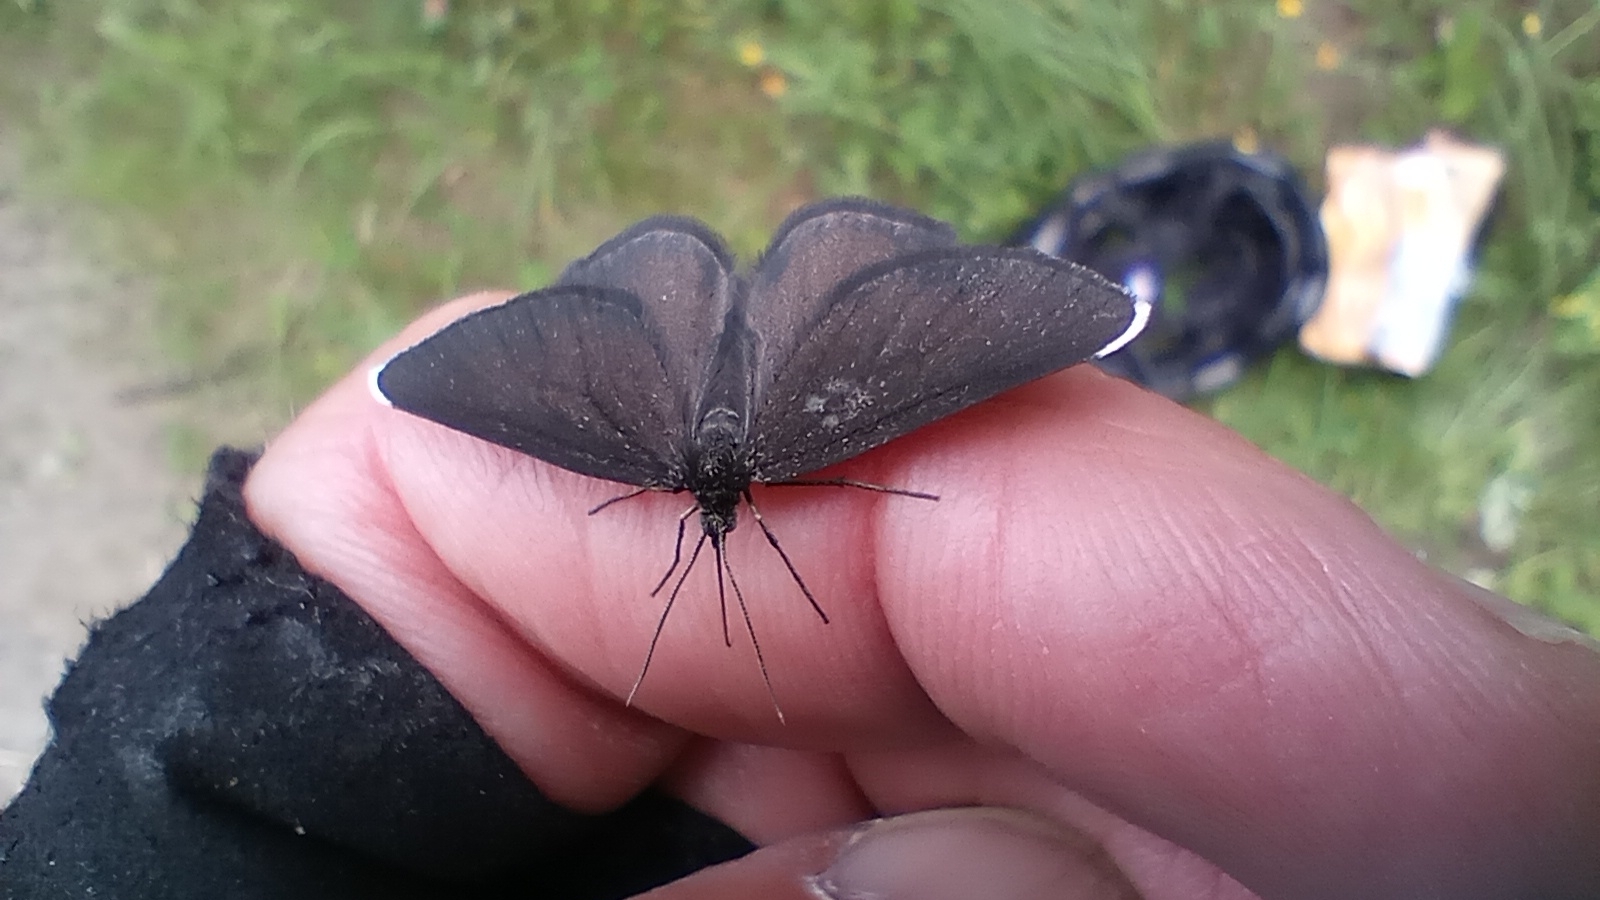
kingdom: Animalia
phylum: Arthropoda
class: Insecta
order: Lepidoptera
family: Geometridae
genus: Odezia
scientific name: Odezia atrata
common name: Chimney sweeper
